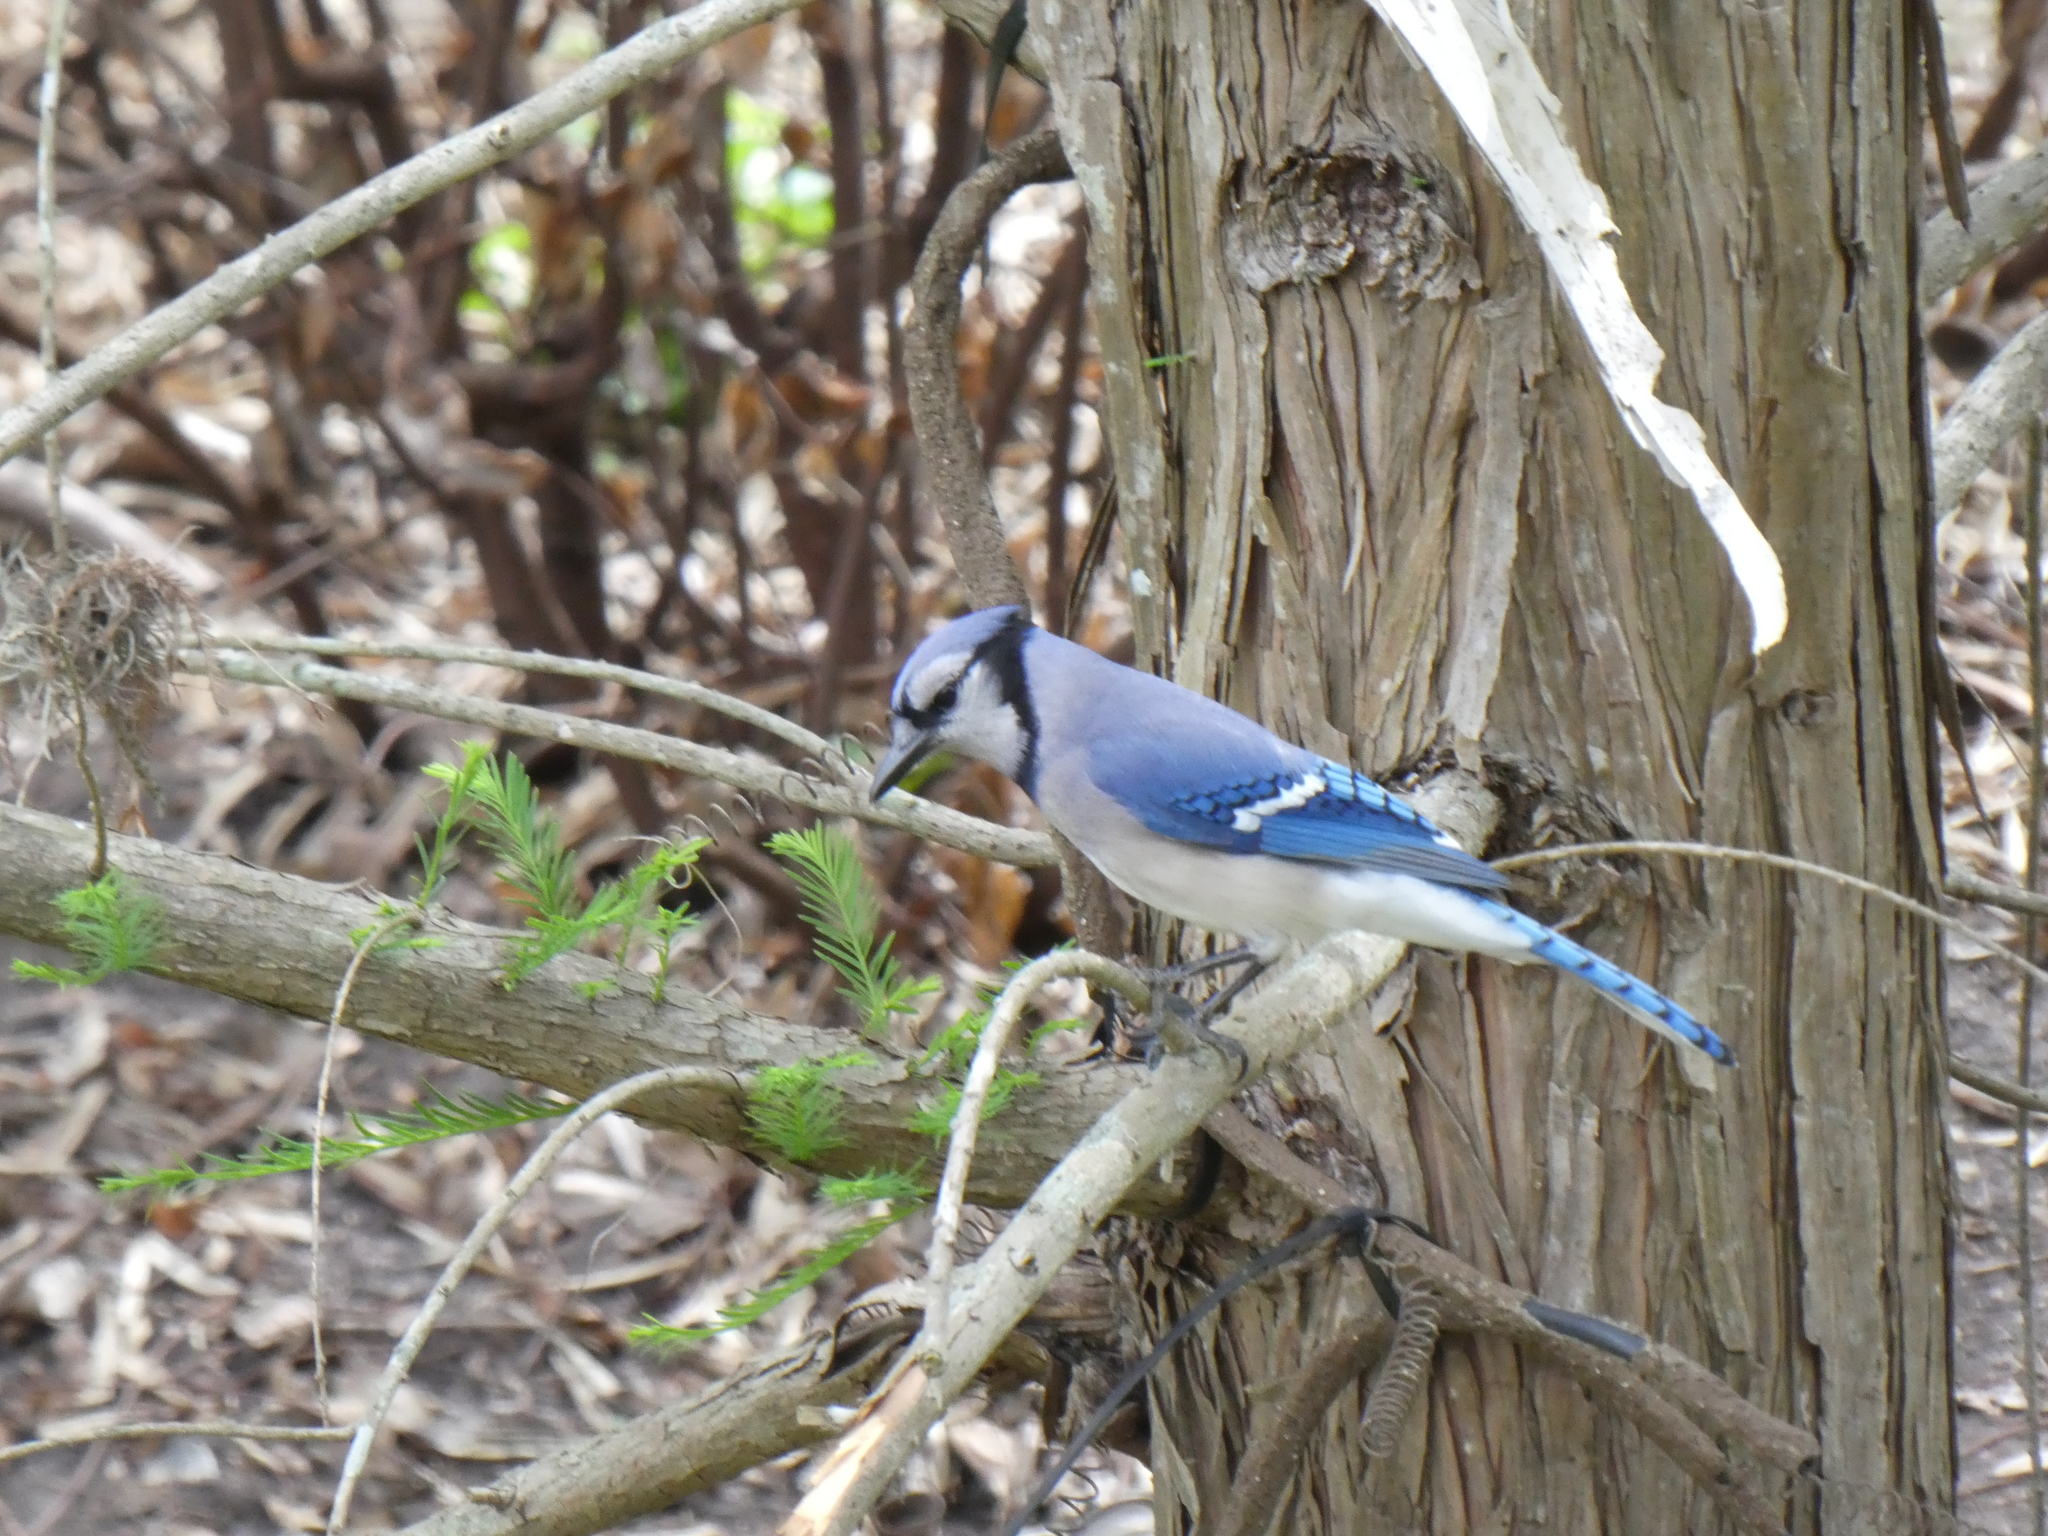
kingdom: Animalia
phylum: Chordata
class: Aves
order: Passeriformes
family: Corvidae
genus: Cyanocitta
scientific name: Cyanocitta cristata
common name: Blue jay
